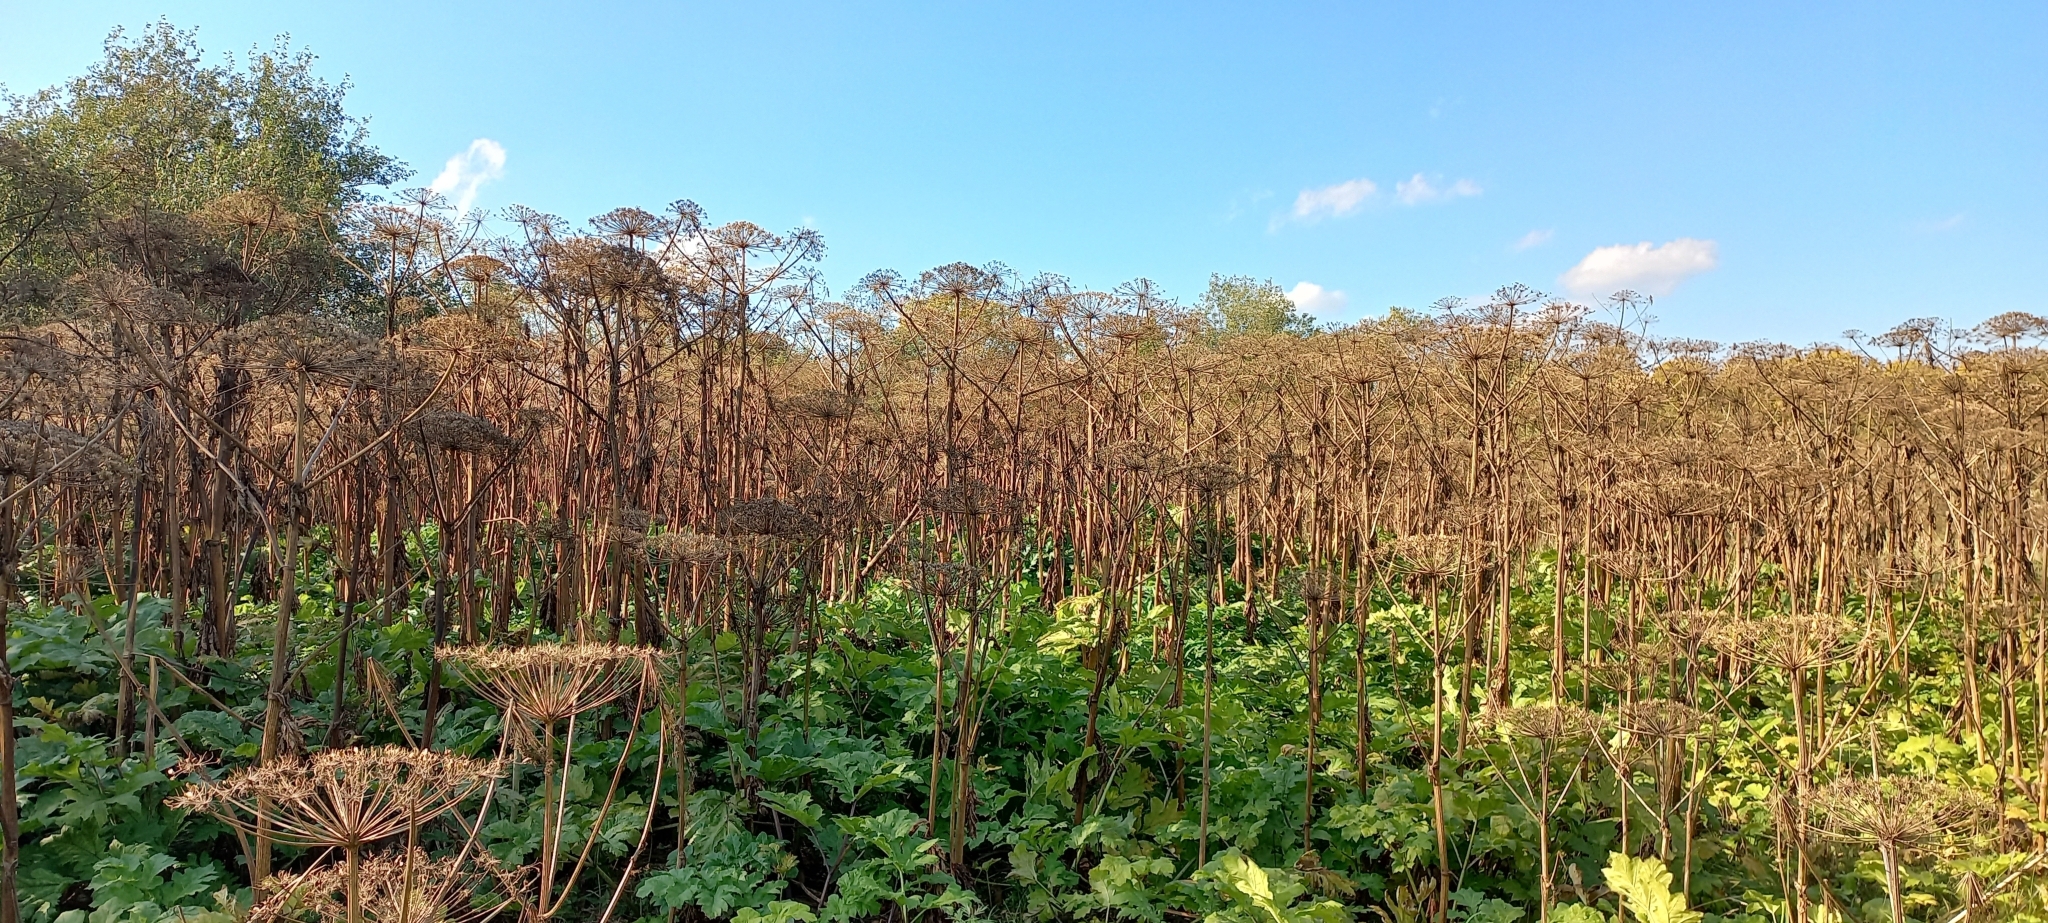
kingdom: Plantae
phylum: Tracheophyta
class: Magnoliopsida
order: Apiales
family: Apiaceae
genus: Heracleum
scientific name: Heracleum sosnowskyi
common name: Sosnowsky's hogweed
